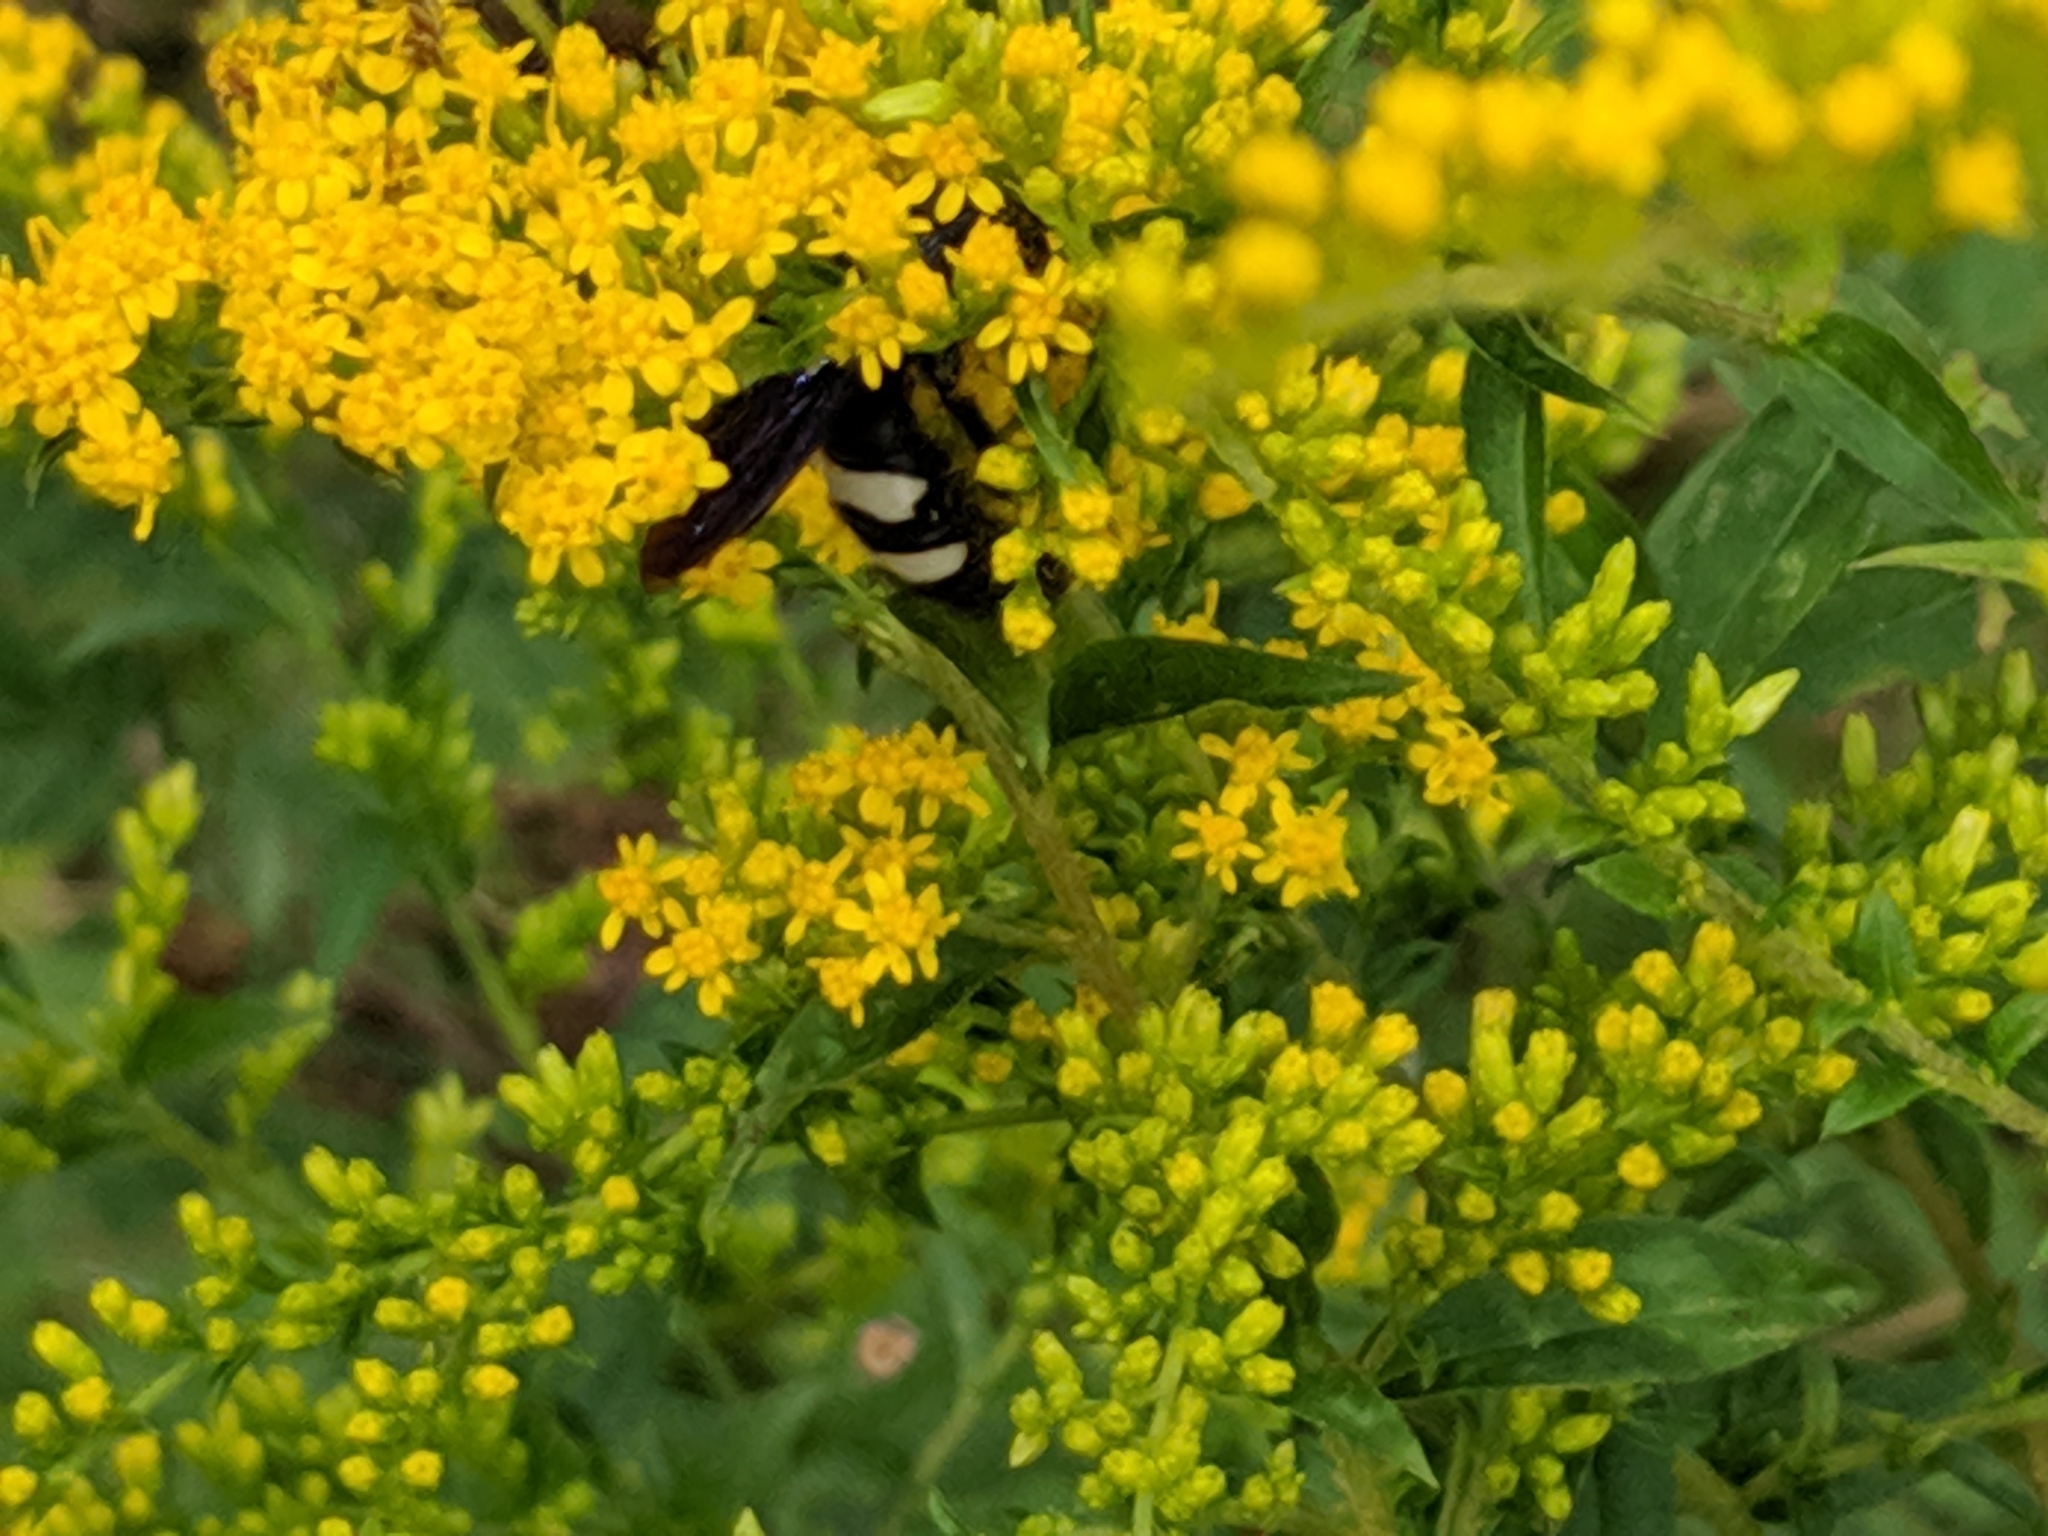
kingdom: Animalia
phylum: Arthropoda
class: Insecta
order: Hymenoptera
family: Scoliidae
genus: Scolia
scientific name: Scolia bicincta
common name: Double-banded scoliid wasp
